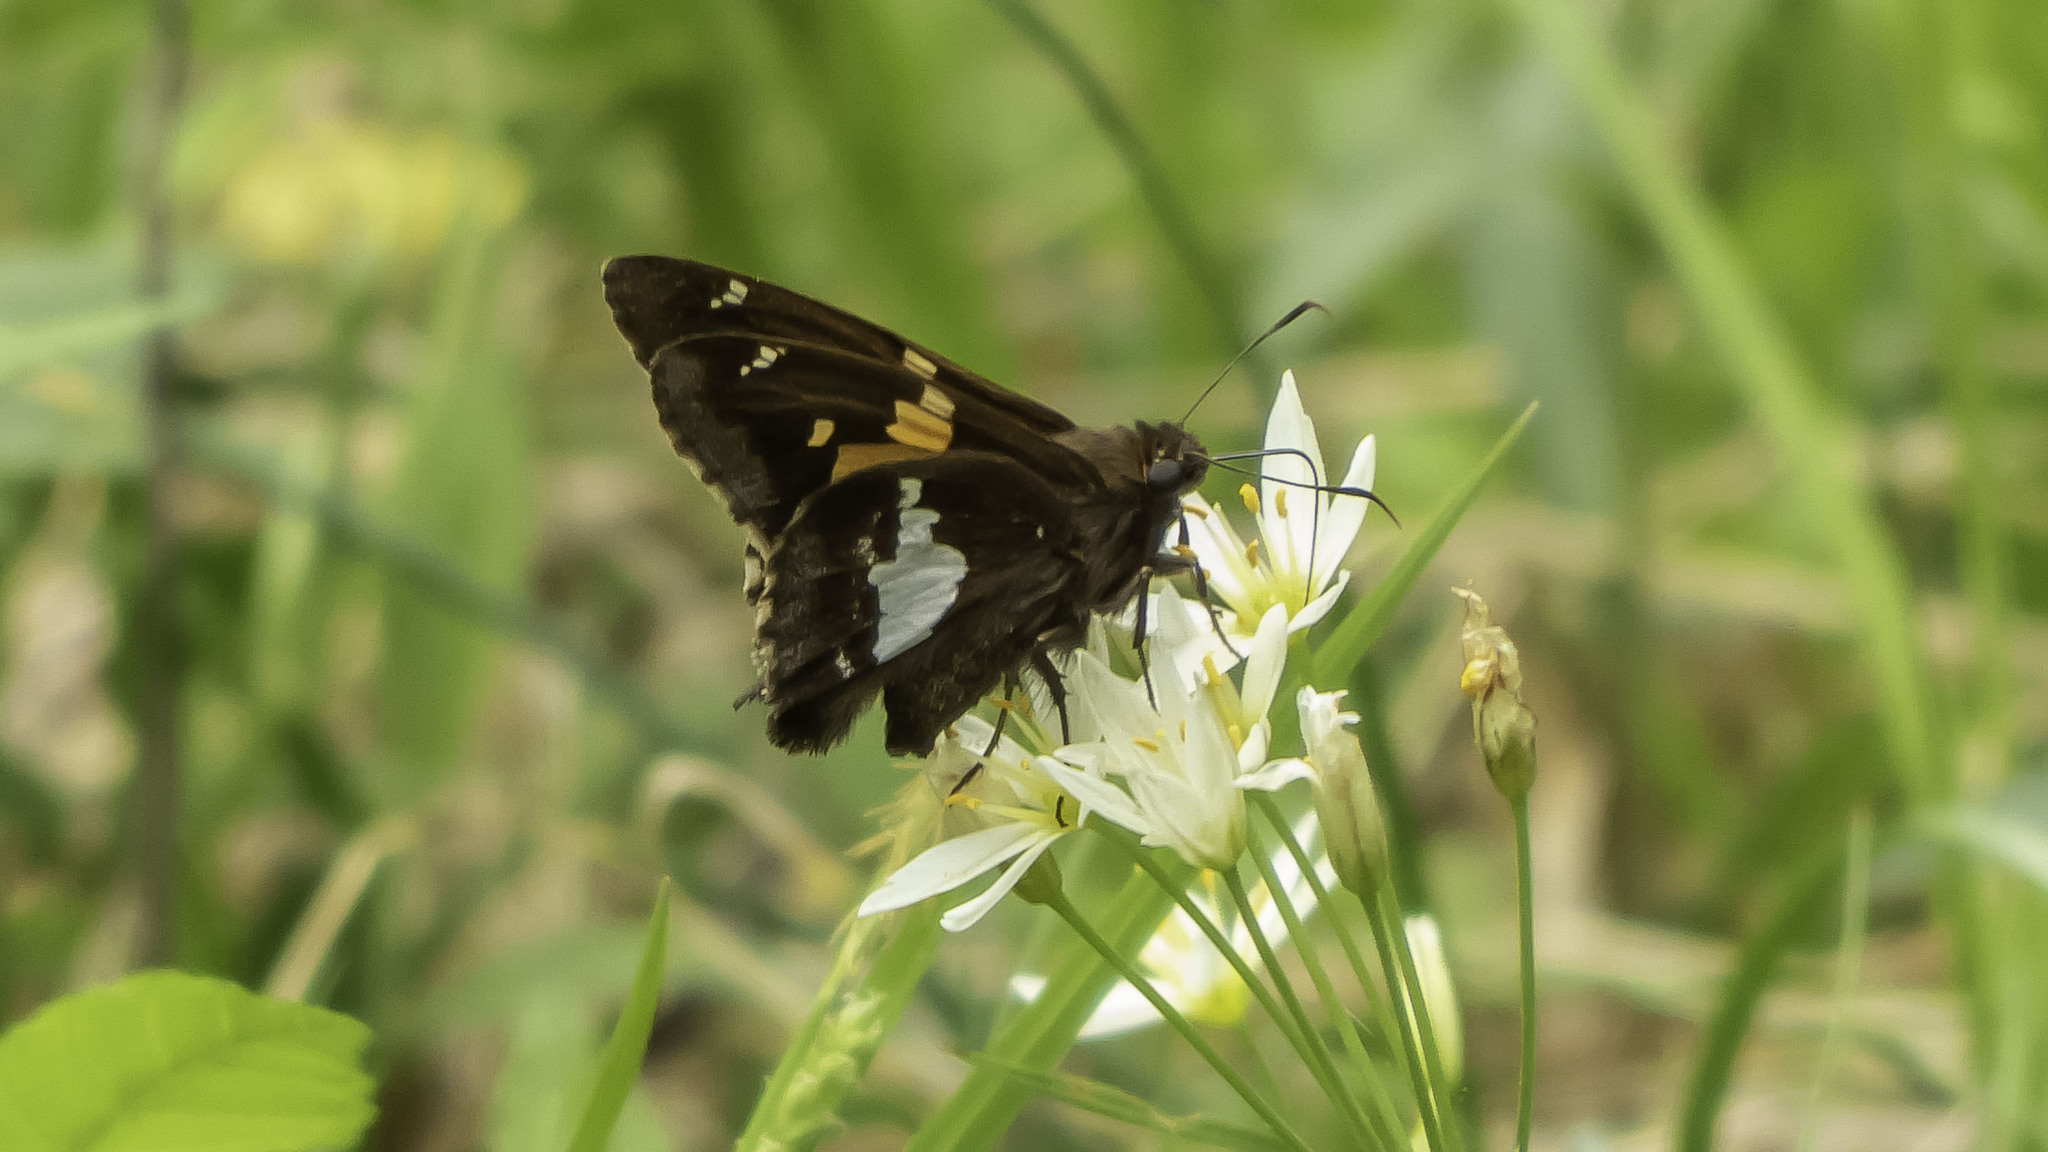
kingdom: Animalia
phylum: Arthropoda
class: Insecta
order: Lepidoptera
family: Hesperiidae
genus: Epargyreus
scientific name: Epargyreus clarus
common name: Silver-spotted skipper
